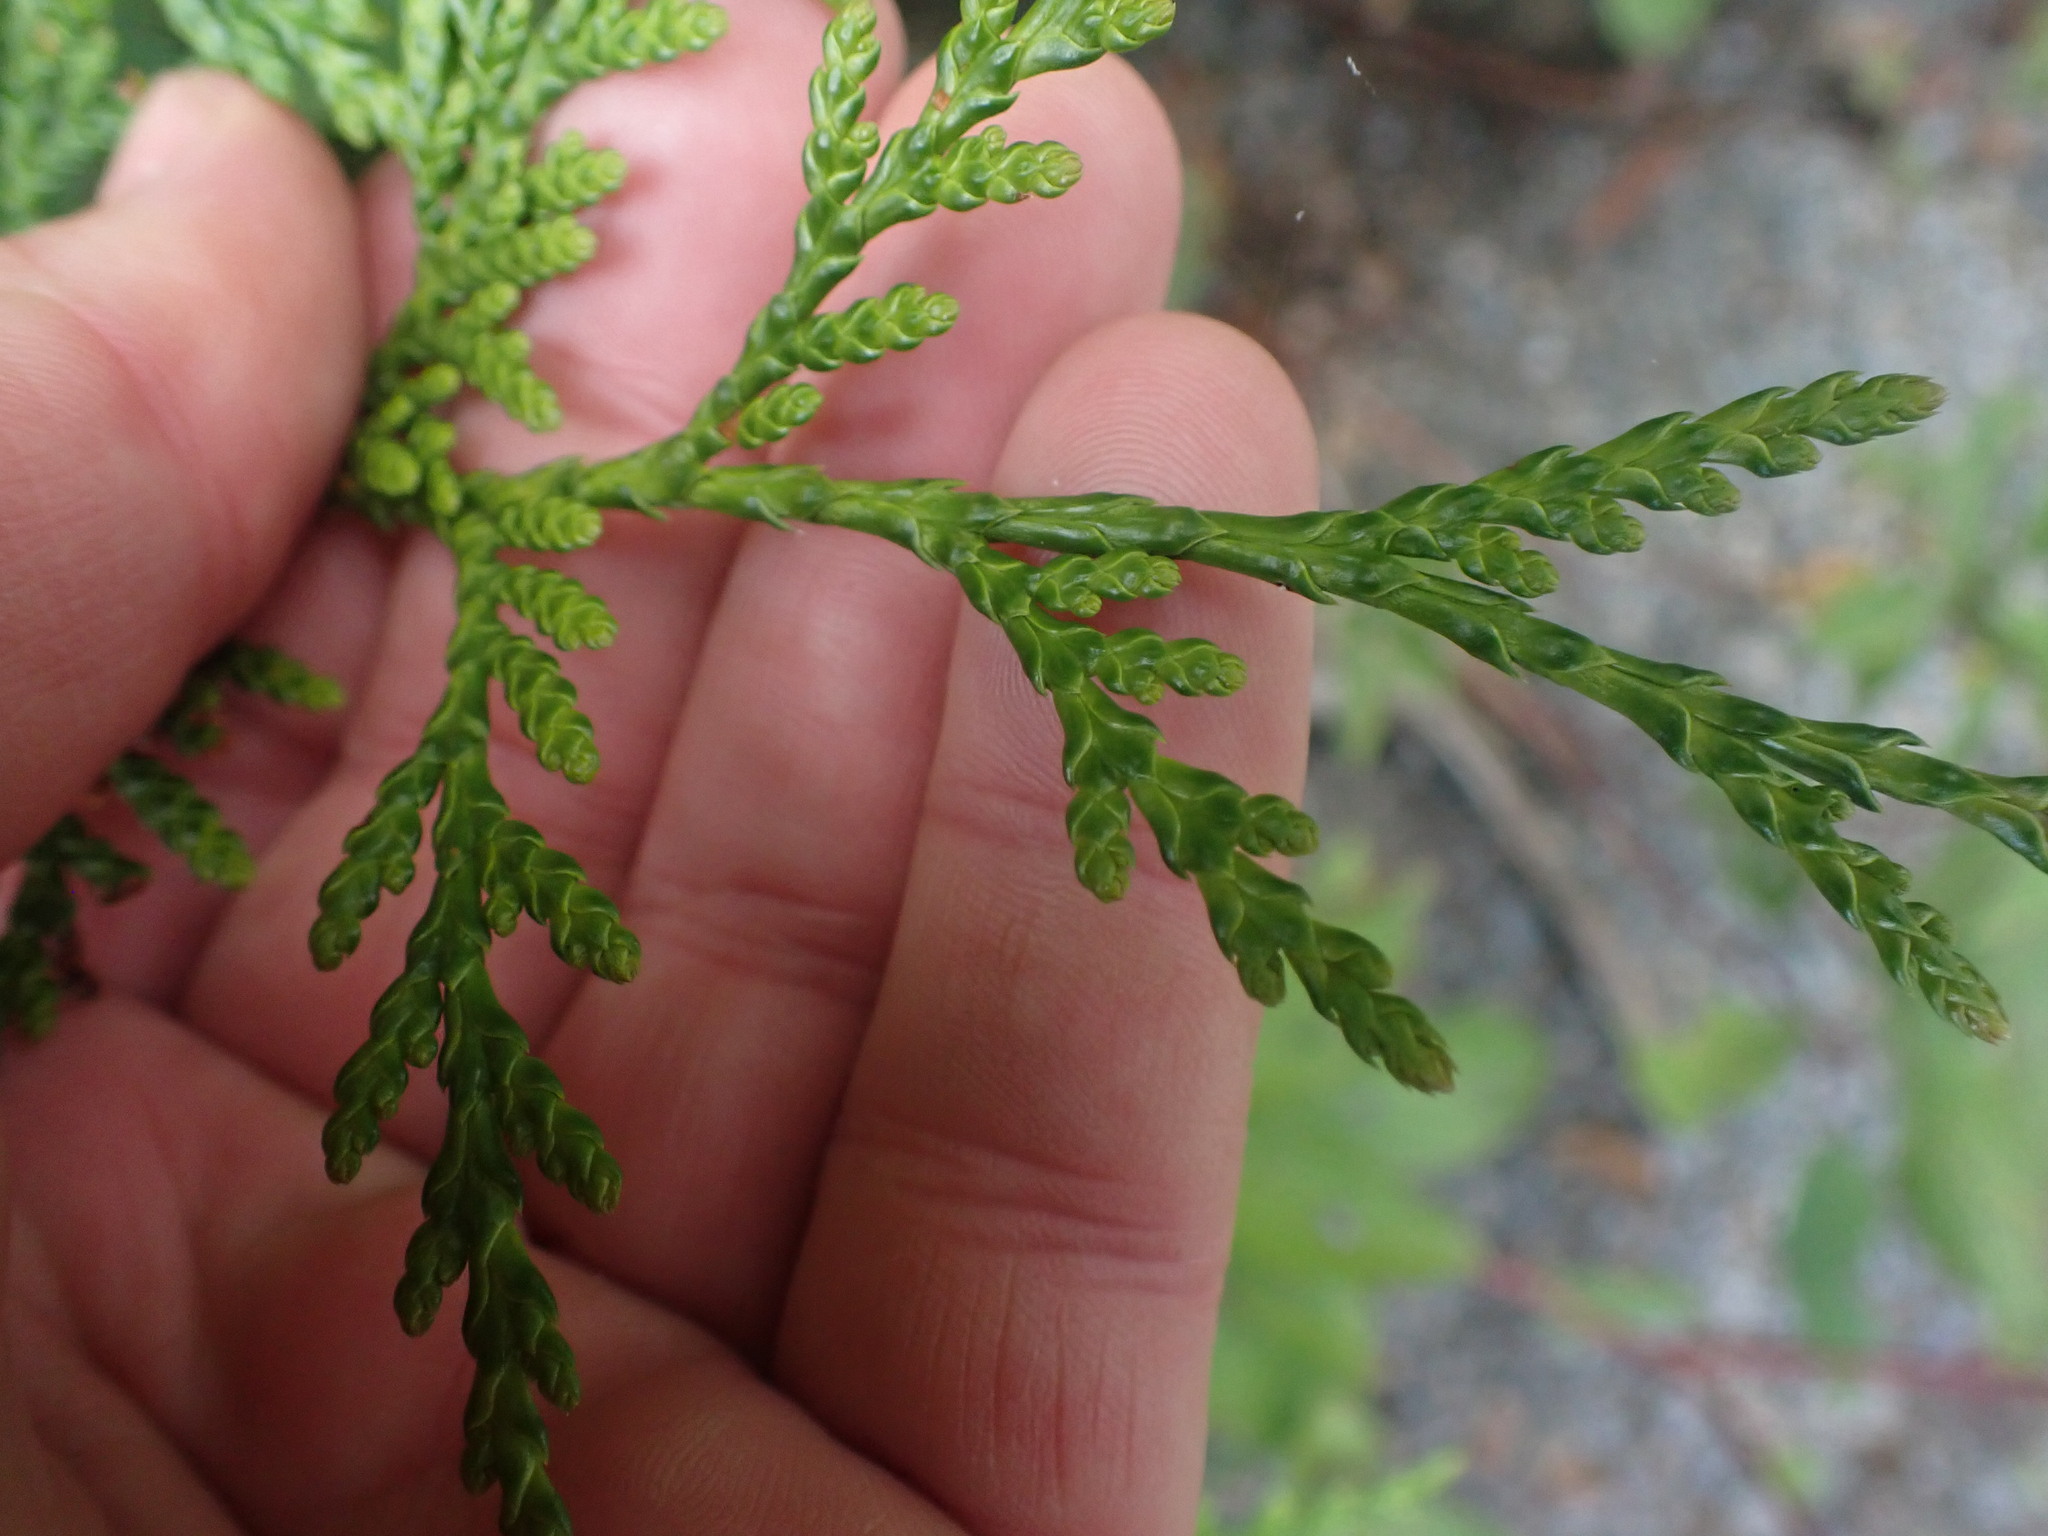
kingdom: Plantae
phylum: Tracheophyta
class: Pinopsida
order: Pinales
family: Cupressaceae
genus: Thuja
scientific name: Thuja plicata
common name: Western red-cedar
